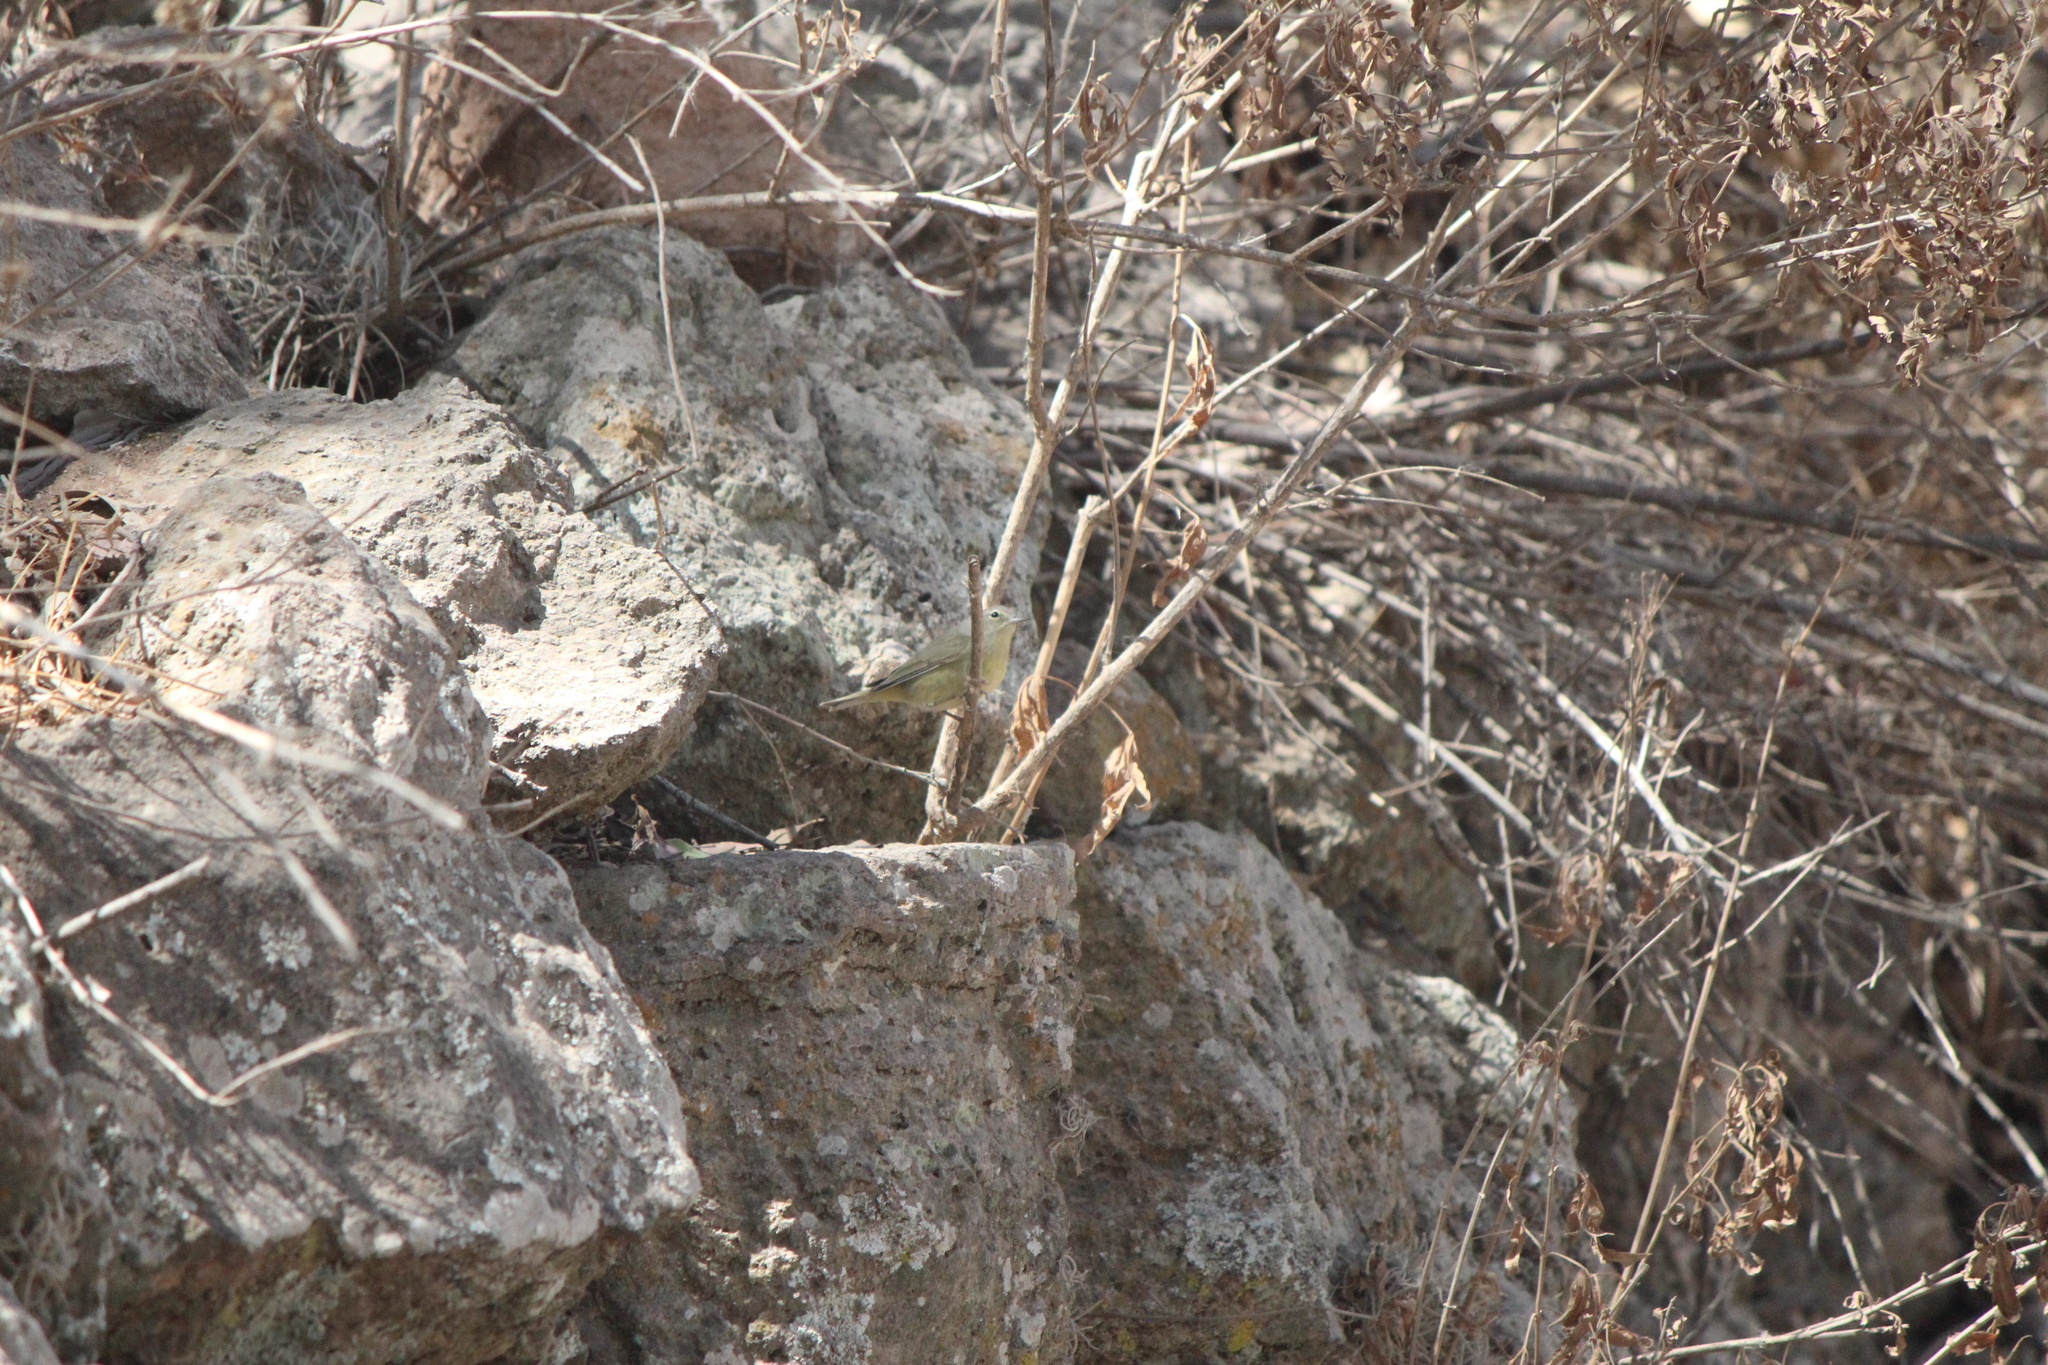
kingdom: Animalia
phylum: Chordata
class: Aves
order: Passeriformes
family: Parulidae
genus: Leiothlypis
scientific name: Leiothlypis celata
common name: Orange-crowned warbler
